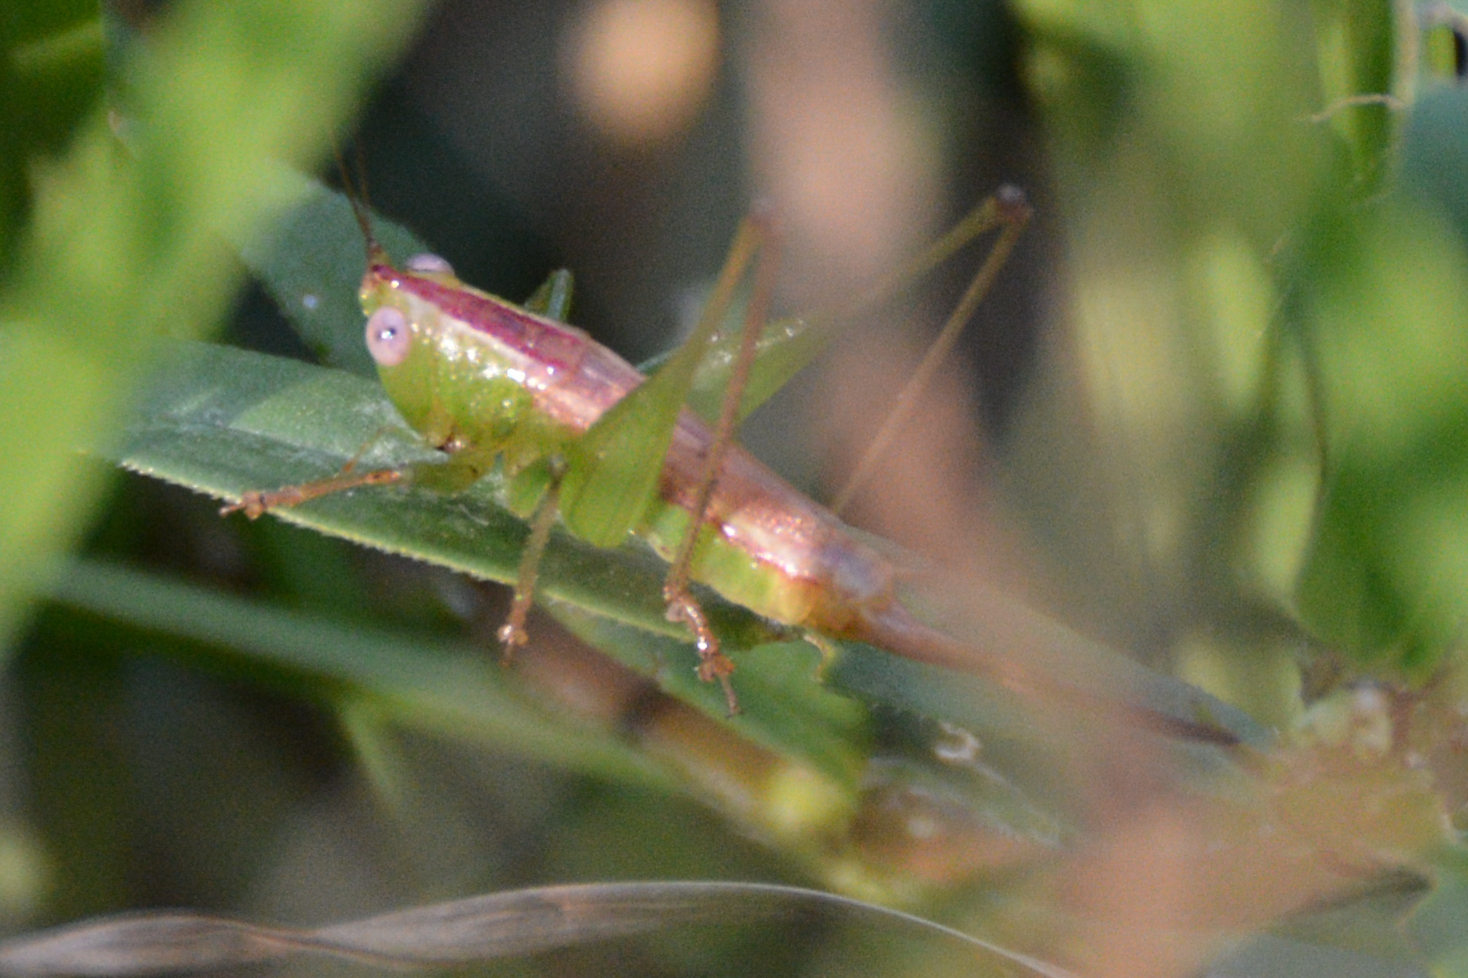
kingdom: Animalia
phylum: Arthropoda
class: Insecta
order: Orthoptera
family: Tettigoniidae
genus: Conocephalus
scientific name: Conocephalus brevipennis
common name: Short-winged meadow katydid
